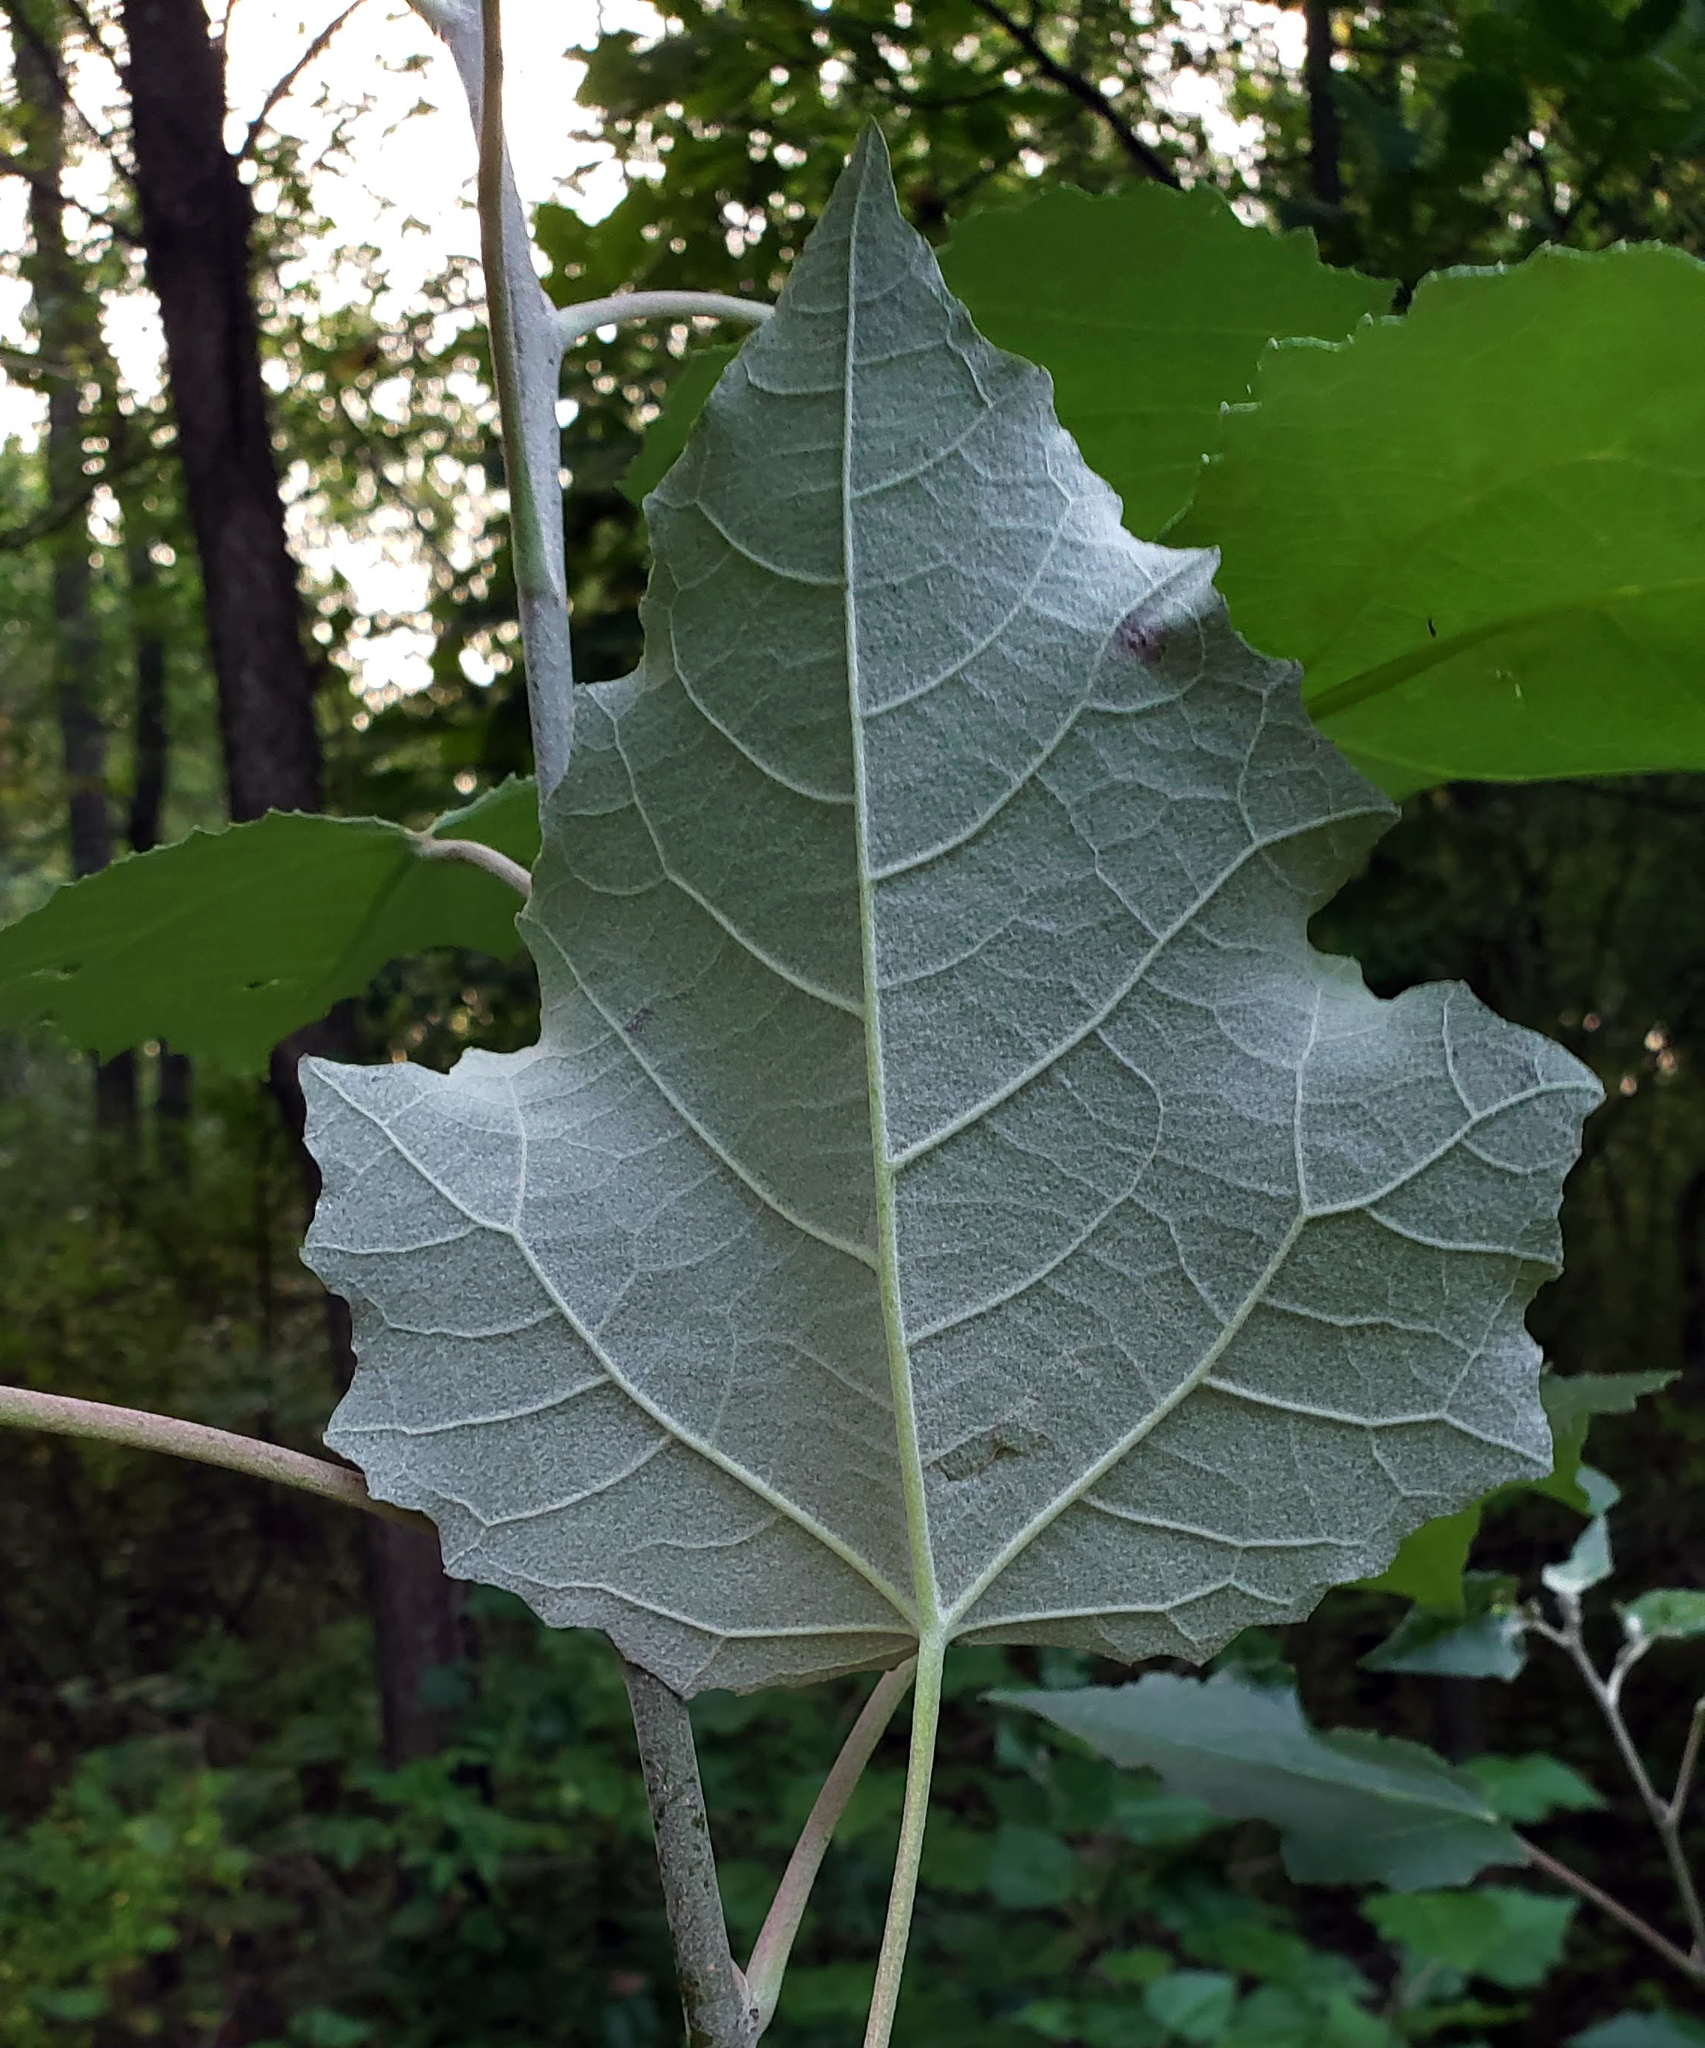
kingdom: Plantae
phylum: Tracheophyta
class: Magnoliopsida
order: Malpighiales
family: Salicaceae
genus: Populus
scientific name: Populus alba
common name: White poplar
